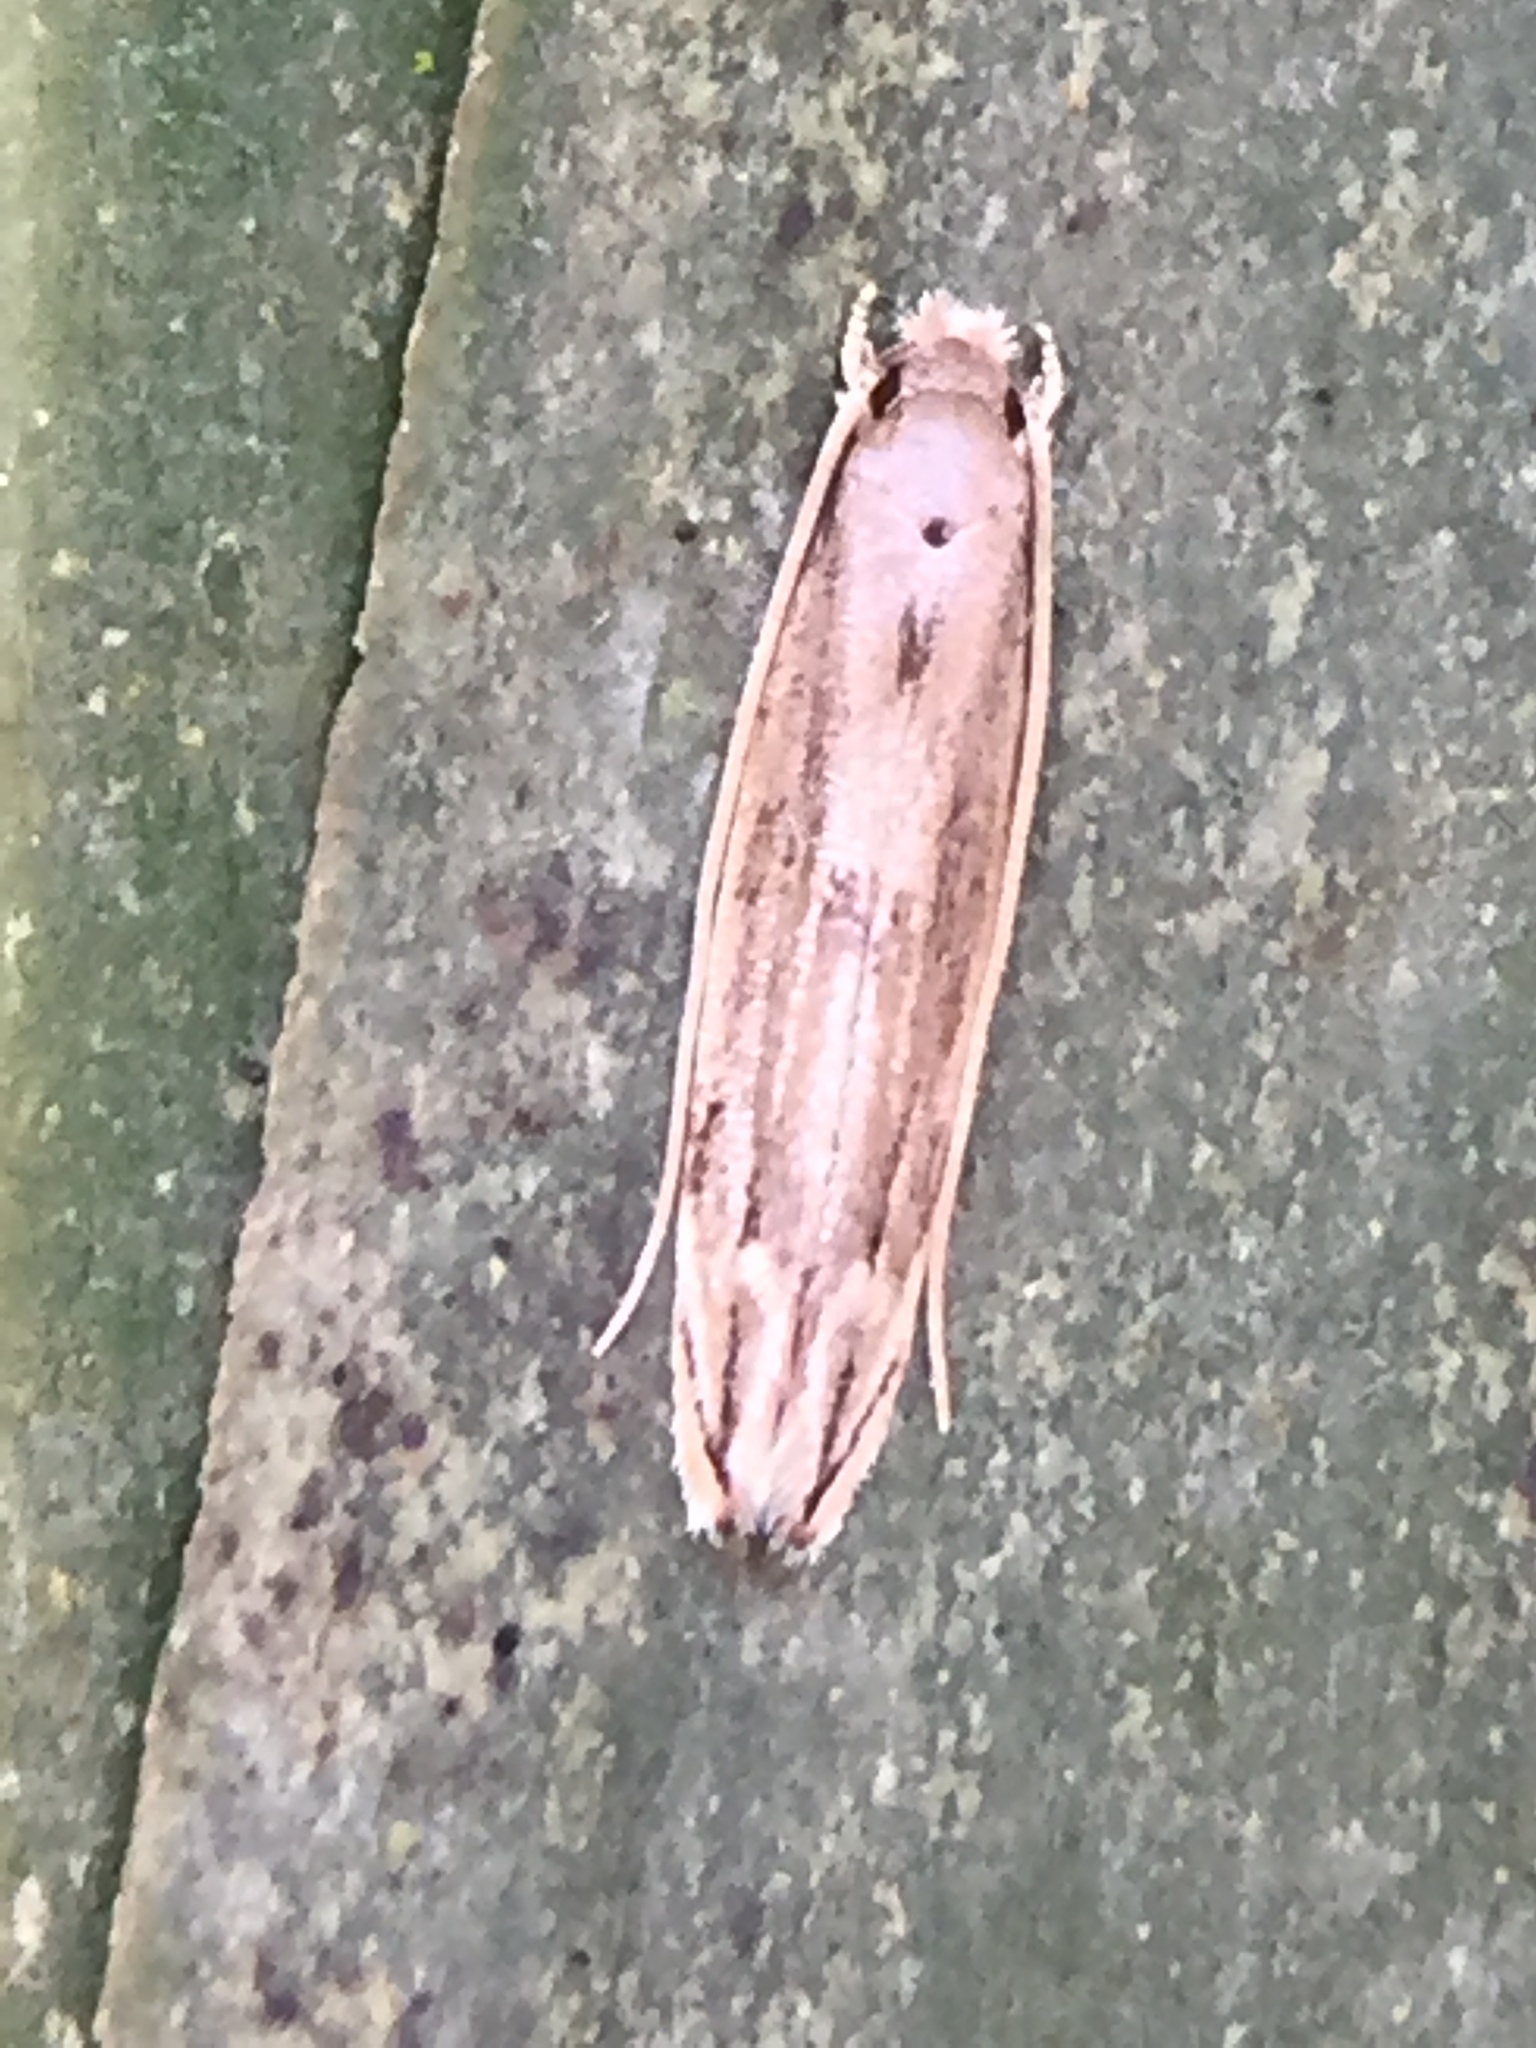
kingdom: Animalia
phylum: Arthropoda
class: Insecta
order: Lepidoptera
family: Tineidae
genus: Amphixystis
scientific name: Amphixystis hapsimacha
